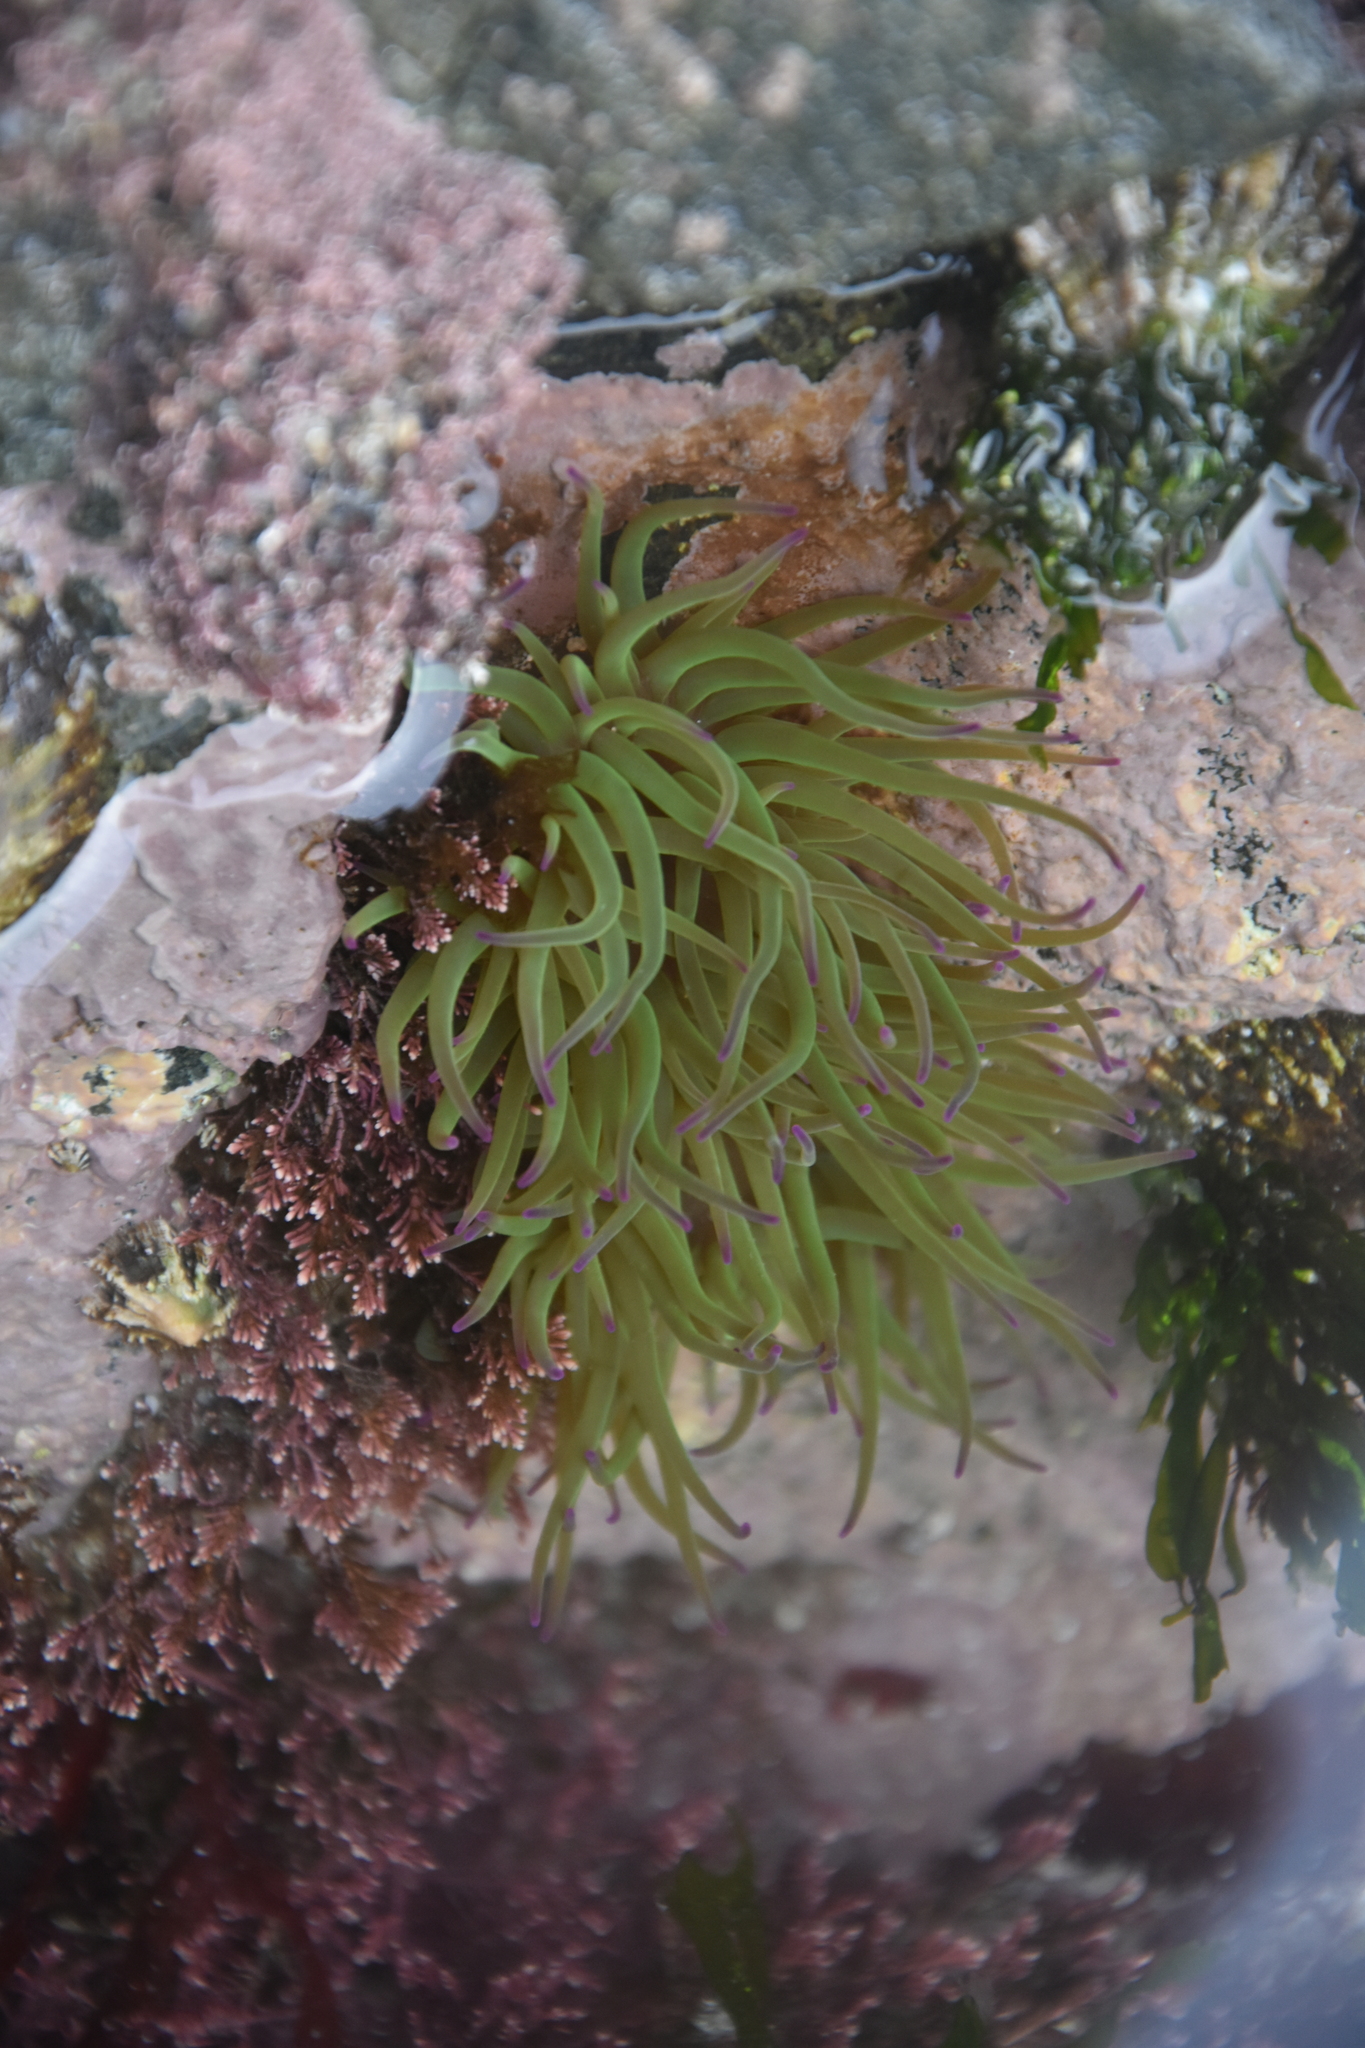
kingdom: Animalia
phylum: Cnidaria
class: Anthozoa
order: Actiniaria
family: Actiniidae
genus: Anemonia
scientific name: Anemonia viridis
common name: Snakelocks anemone
